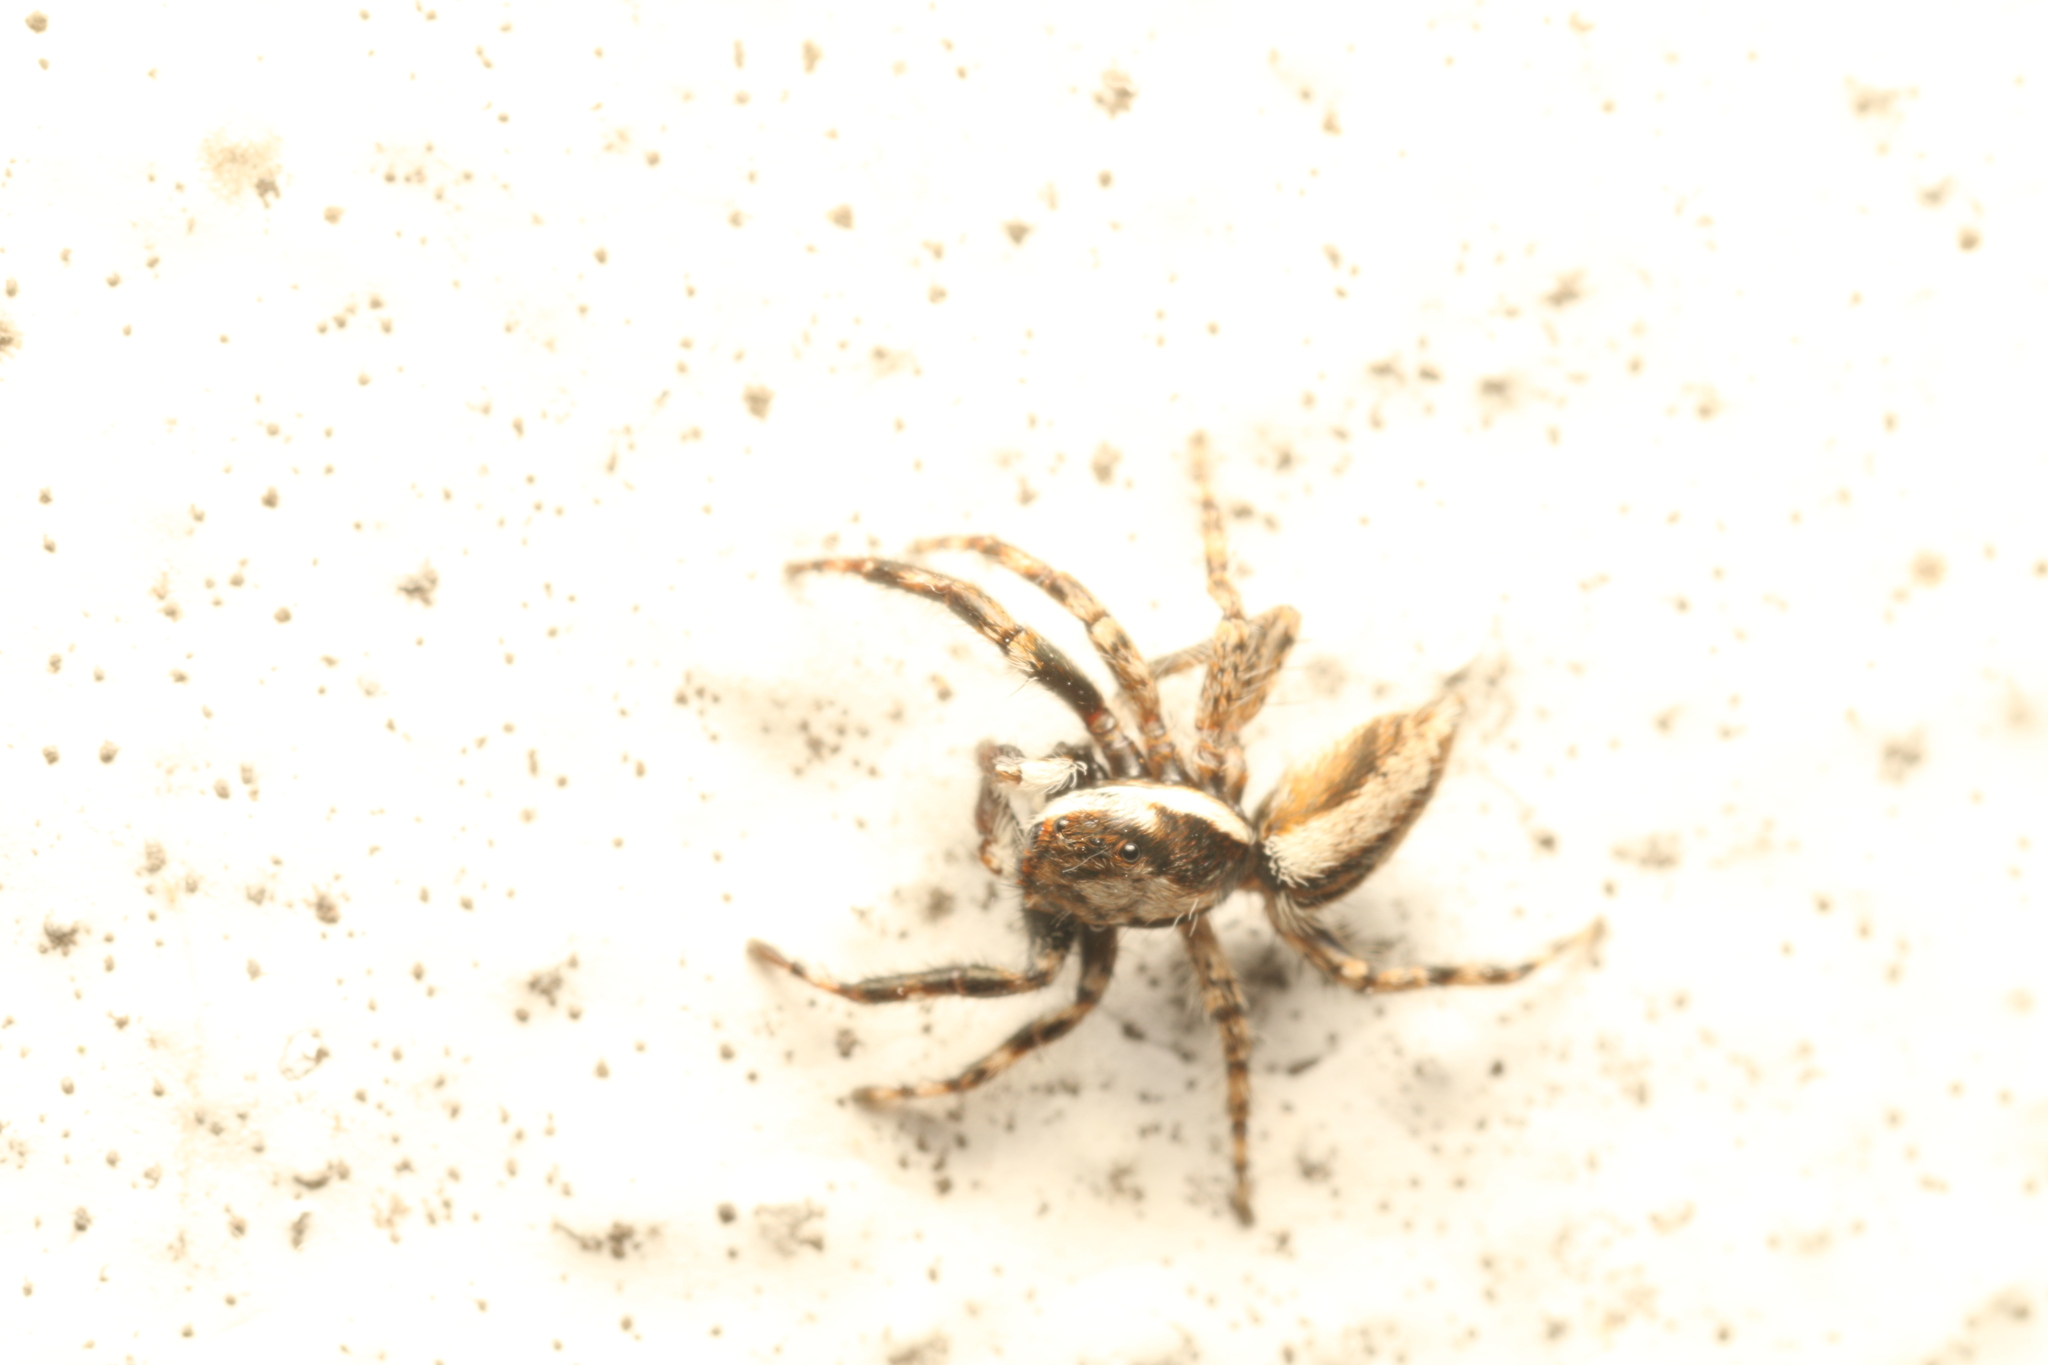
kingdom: Animalia
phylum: Arthropoda
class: Arachnida
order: Araneae
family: Salticidae
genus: Menemerus
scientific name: Menemerus bivittatus
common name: Gray wall jumper
